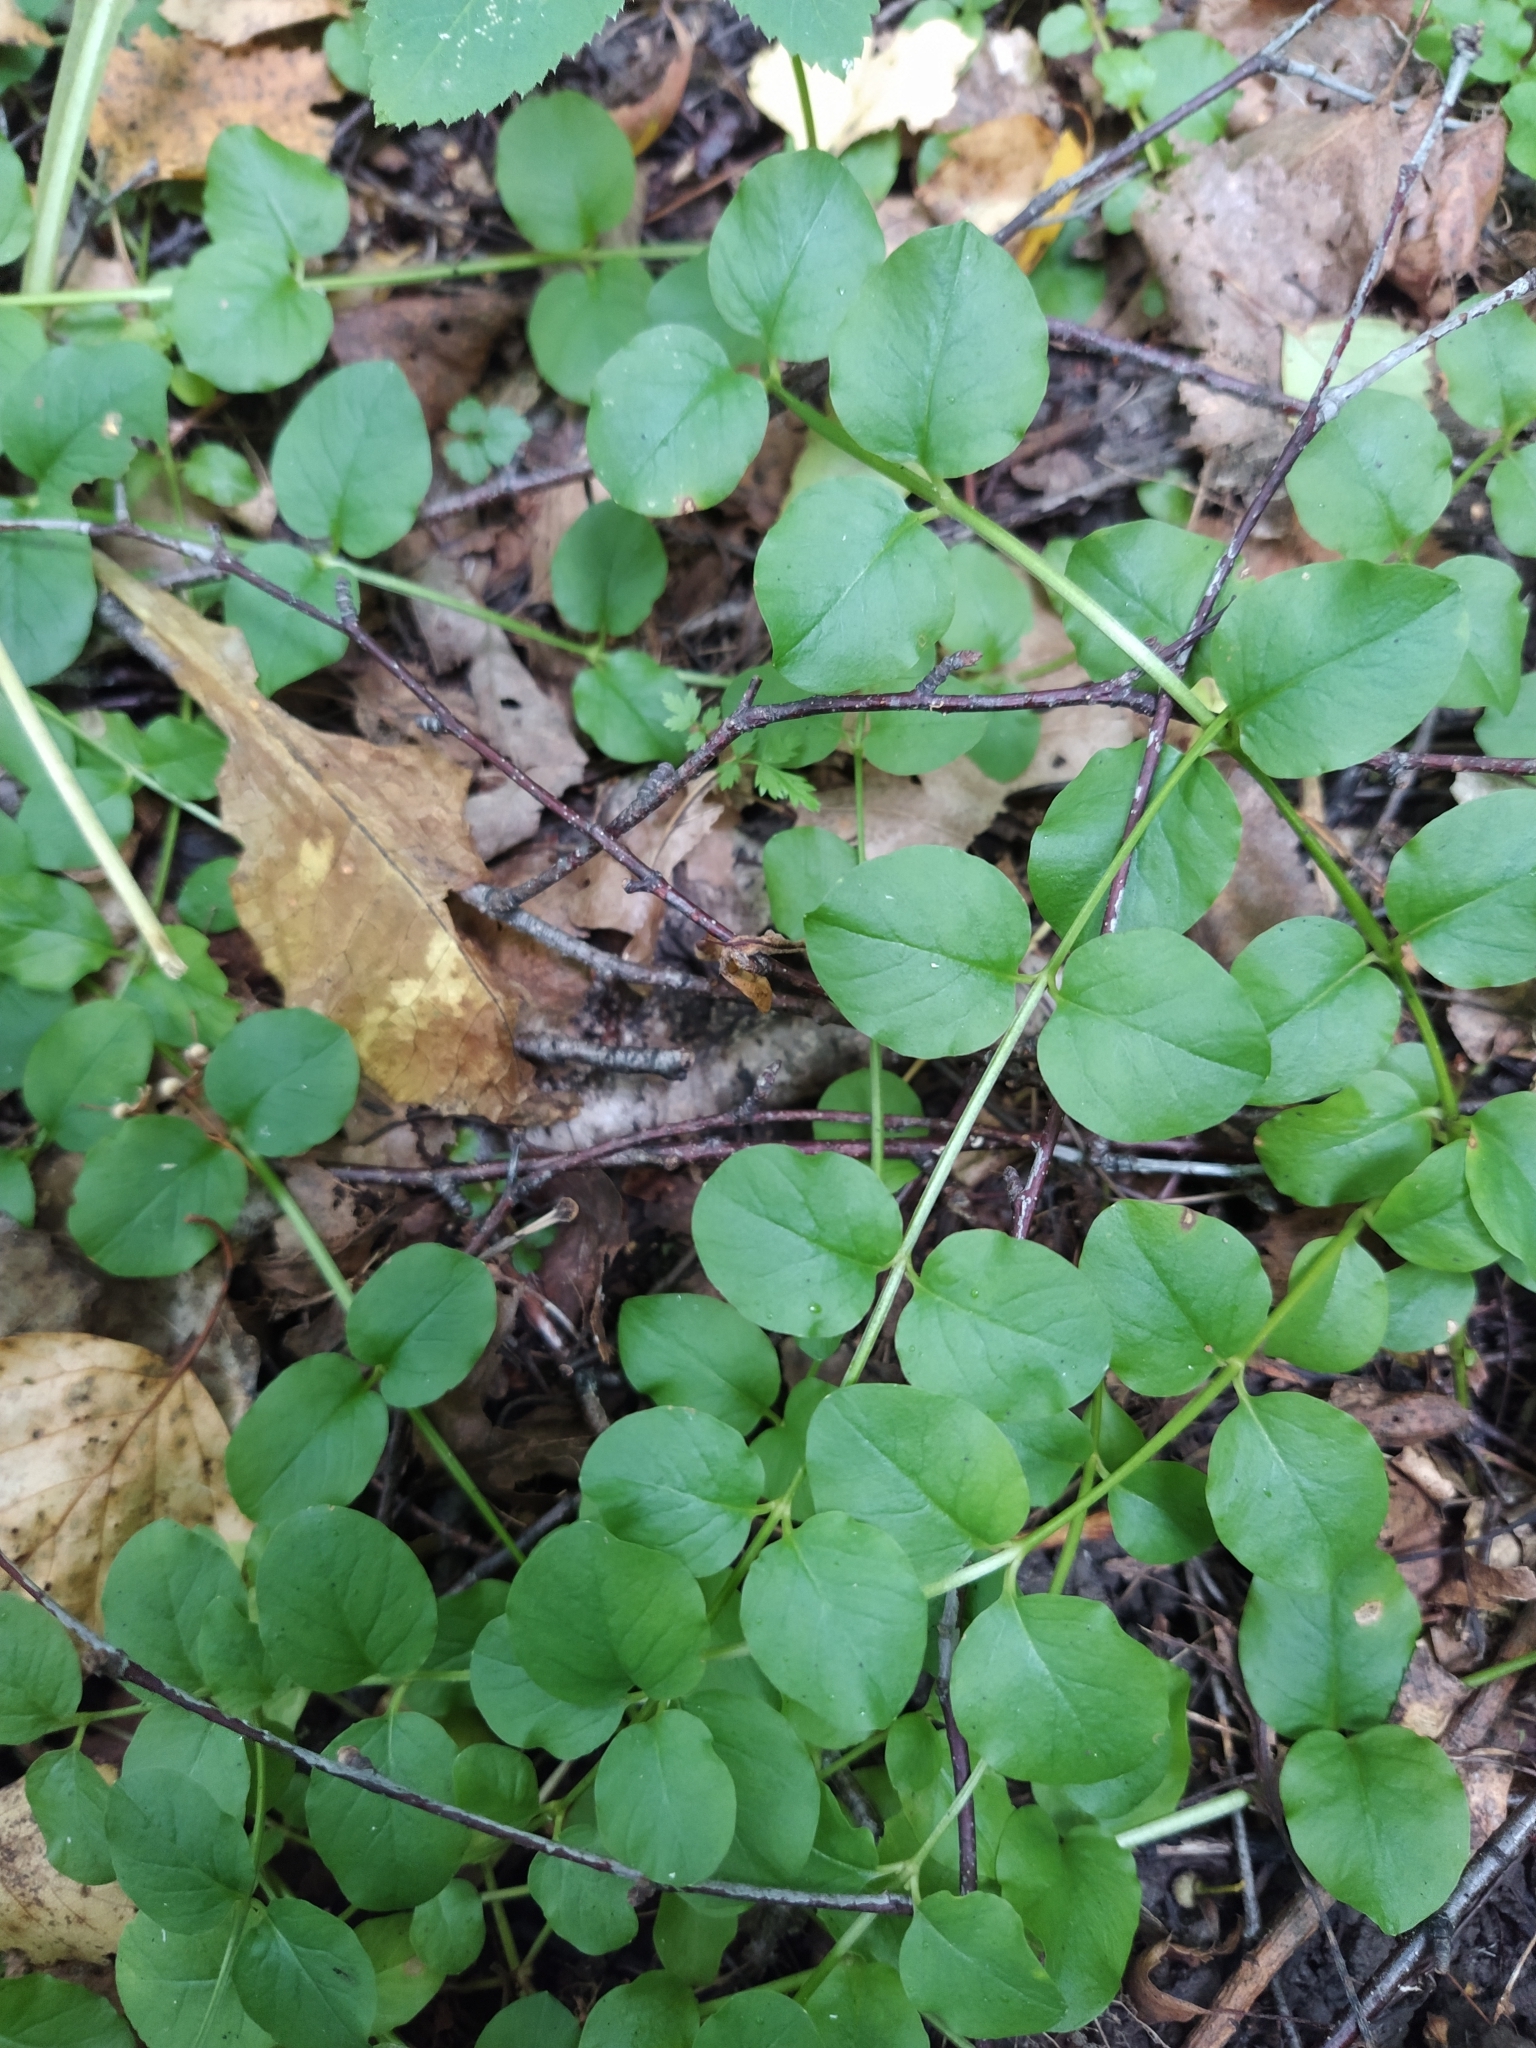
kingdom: Plantae
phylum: Tracheophyta
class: Magnoliopsida
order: Ericales
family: Primulaceae
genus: Lysimachia
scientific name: Lysimachia nummularia
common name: Moneywort
